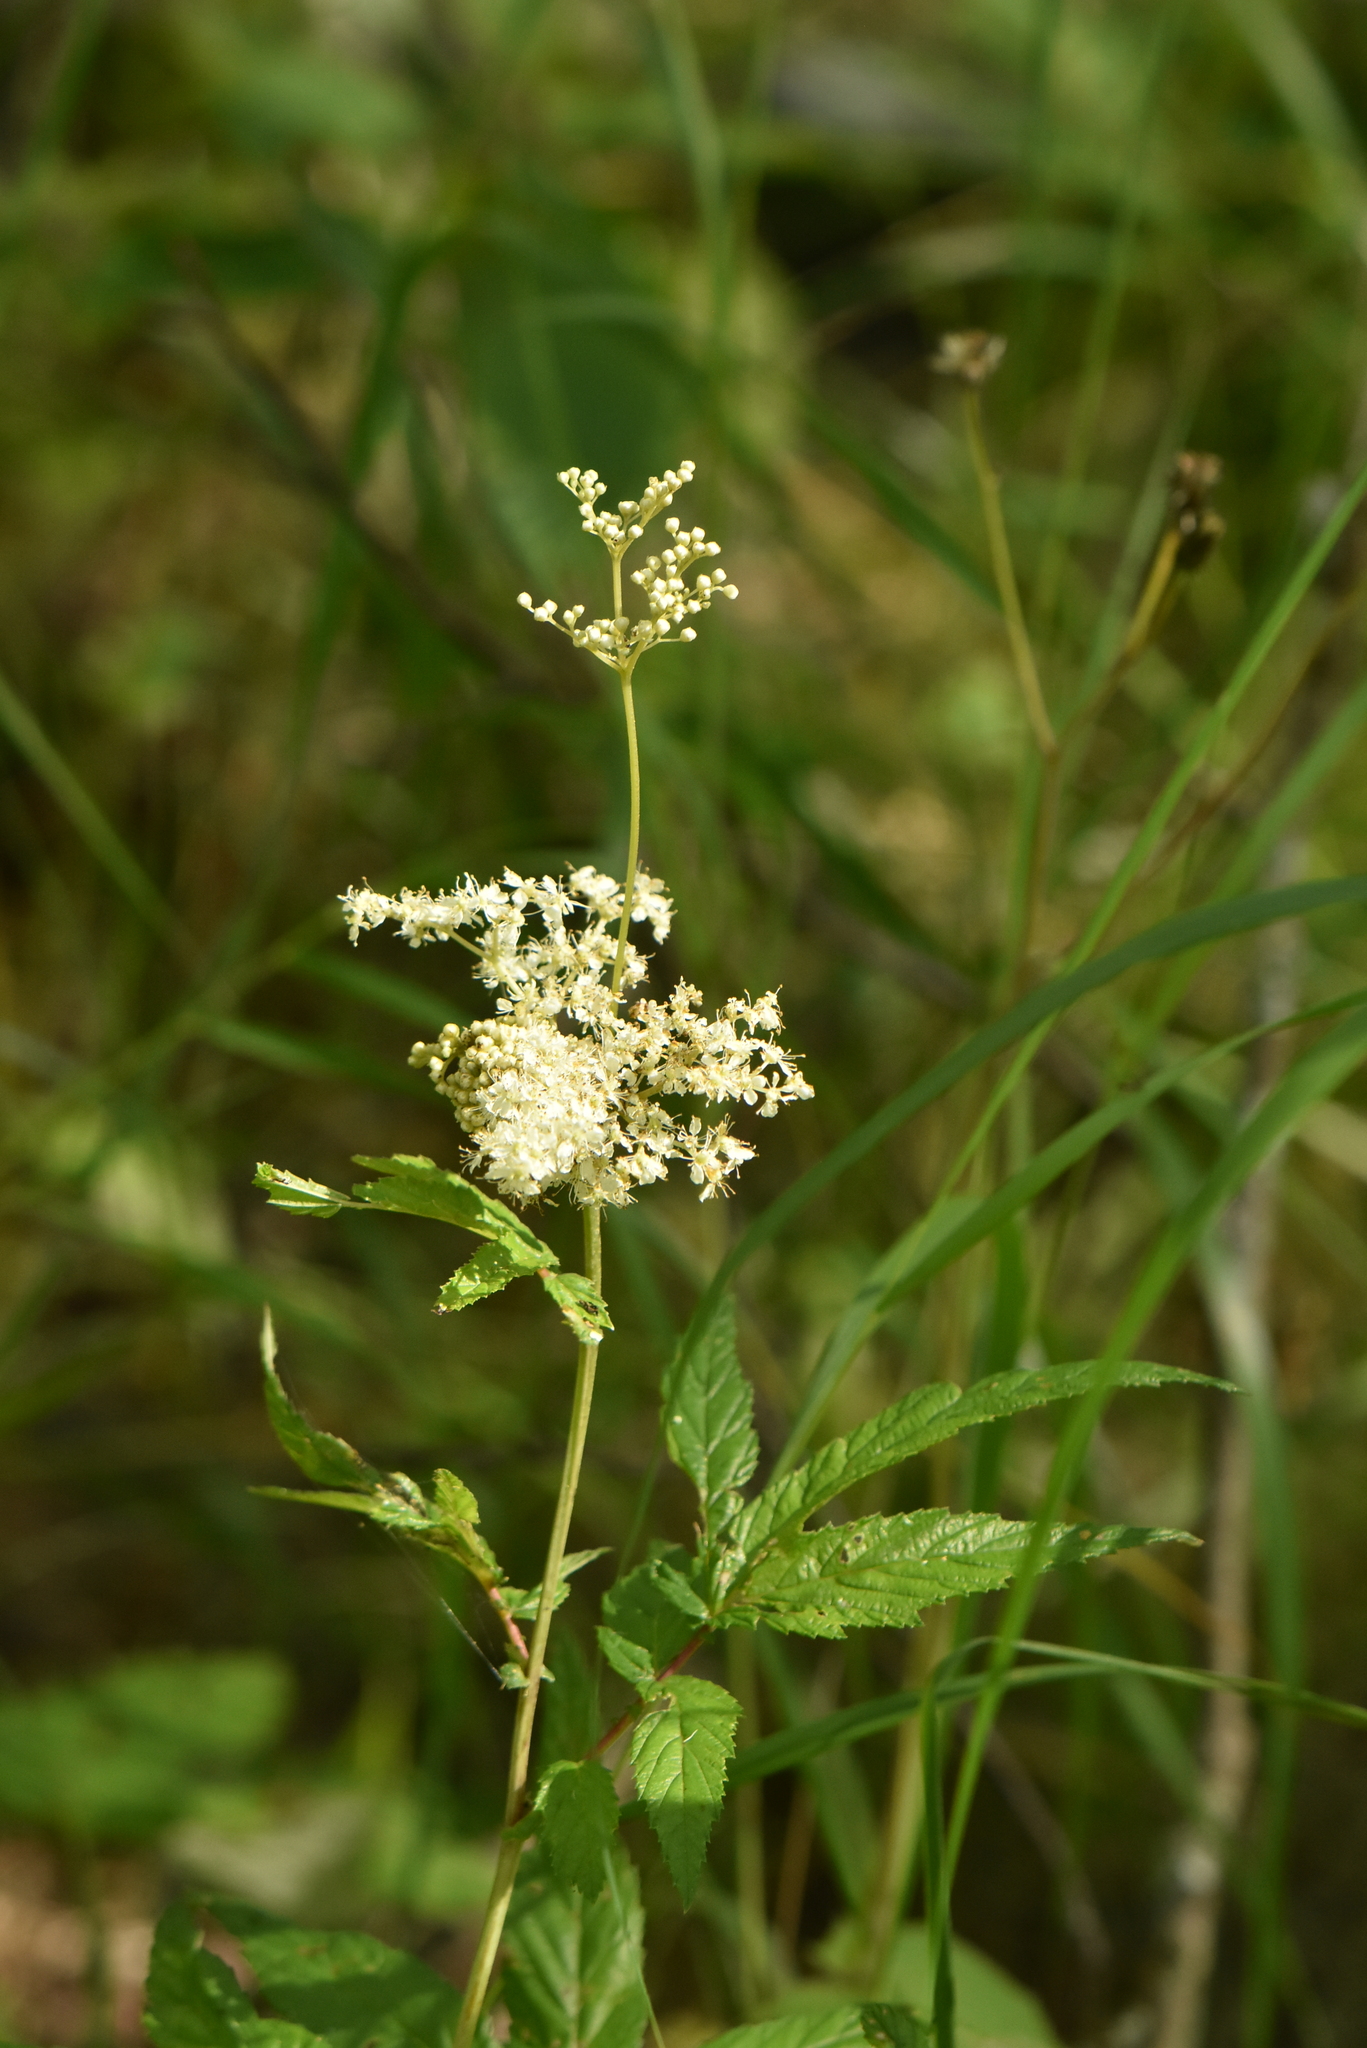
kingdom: Plantae
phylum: Tracheophyta
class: Magnoliopsida
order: Rosales
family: Rosaceae
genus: Filipendula
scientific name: Filipendula ulmaria
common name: Meadowsweet
